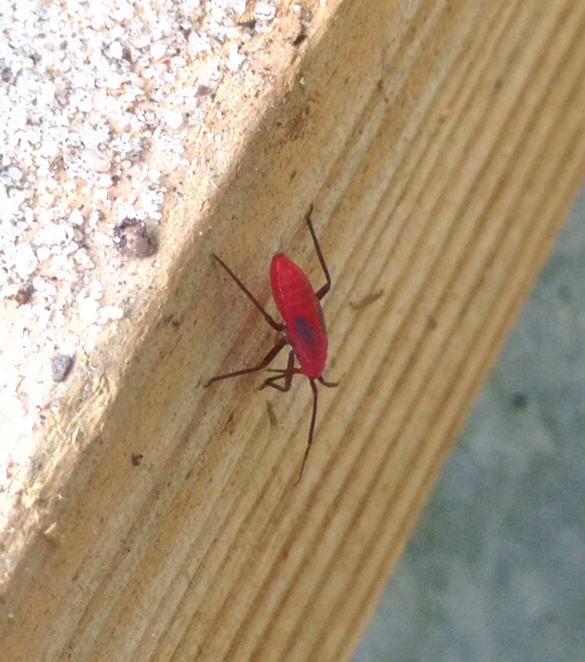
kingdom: Animalia
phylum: Arthropoda
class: Insecta
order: Hemiptera
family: Rhopalidae
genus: Jadera
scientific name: Jadera haematoloma
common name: Red-shouldered bug
